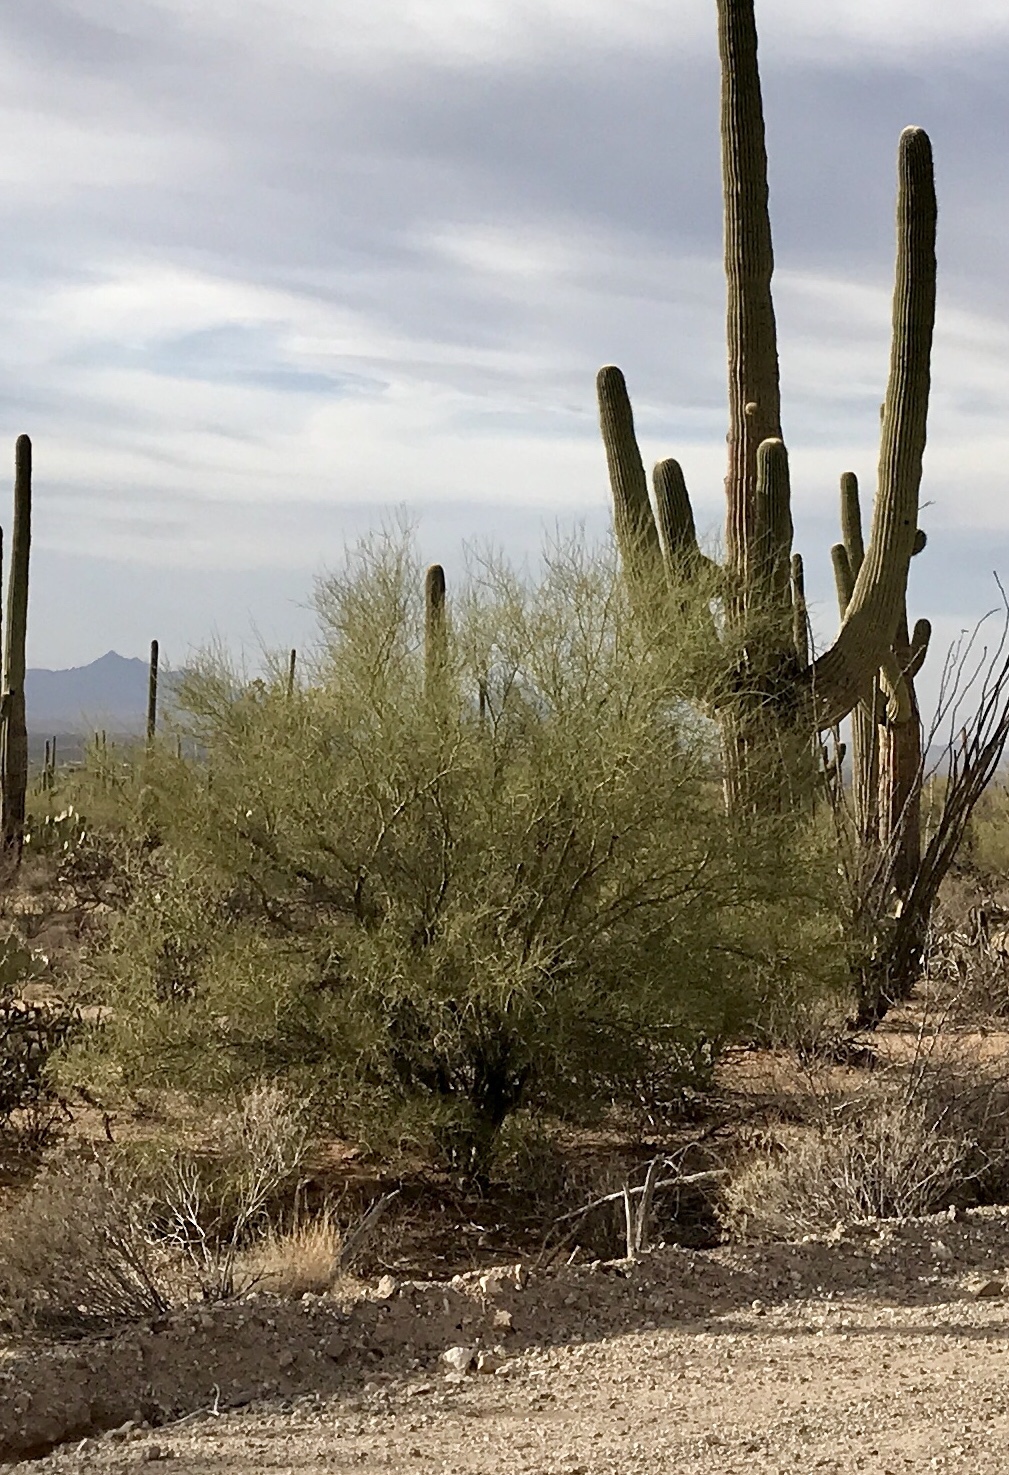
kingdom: Plantae
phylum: Tracheophyta
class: Magnoliopsida
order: Fabales
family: Fabaceae
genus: Parkinsonia
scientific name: Parkinsonia microphylla
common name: Yellow paloverde
